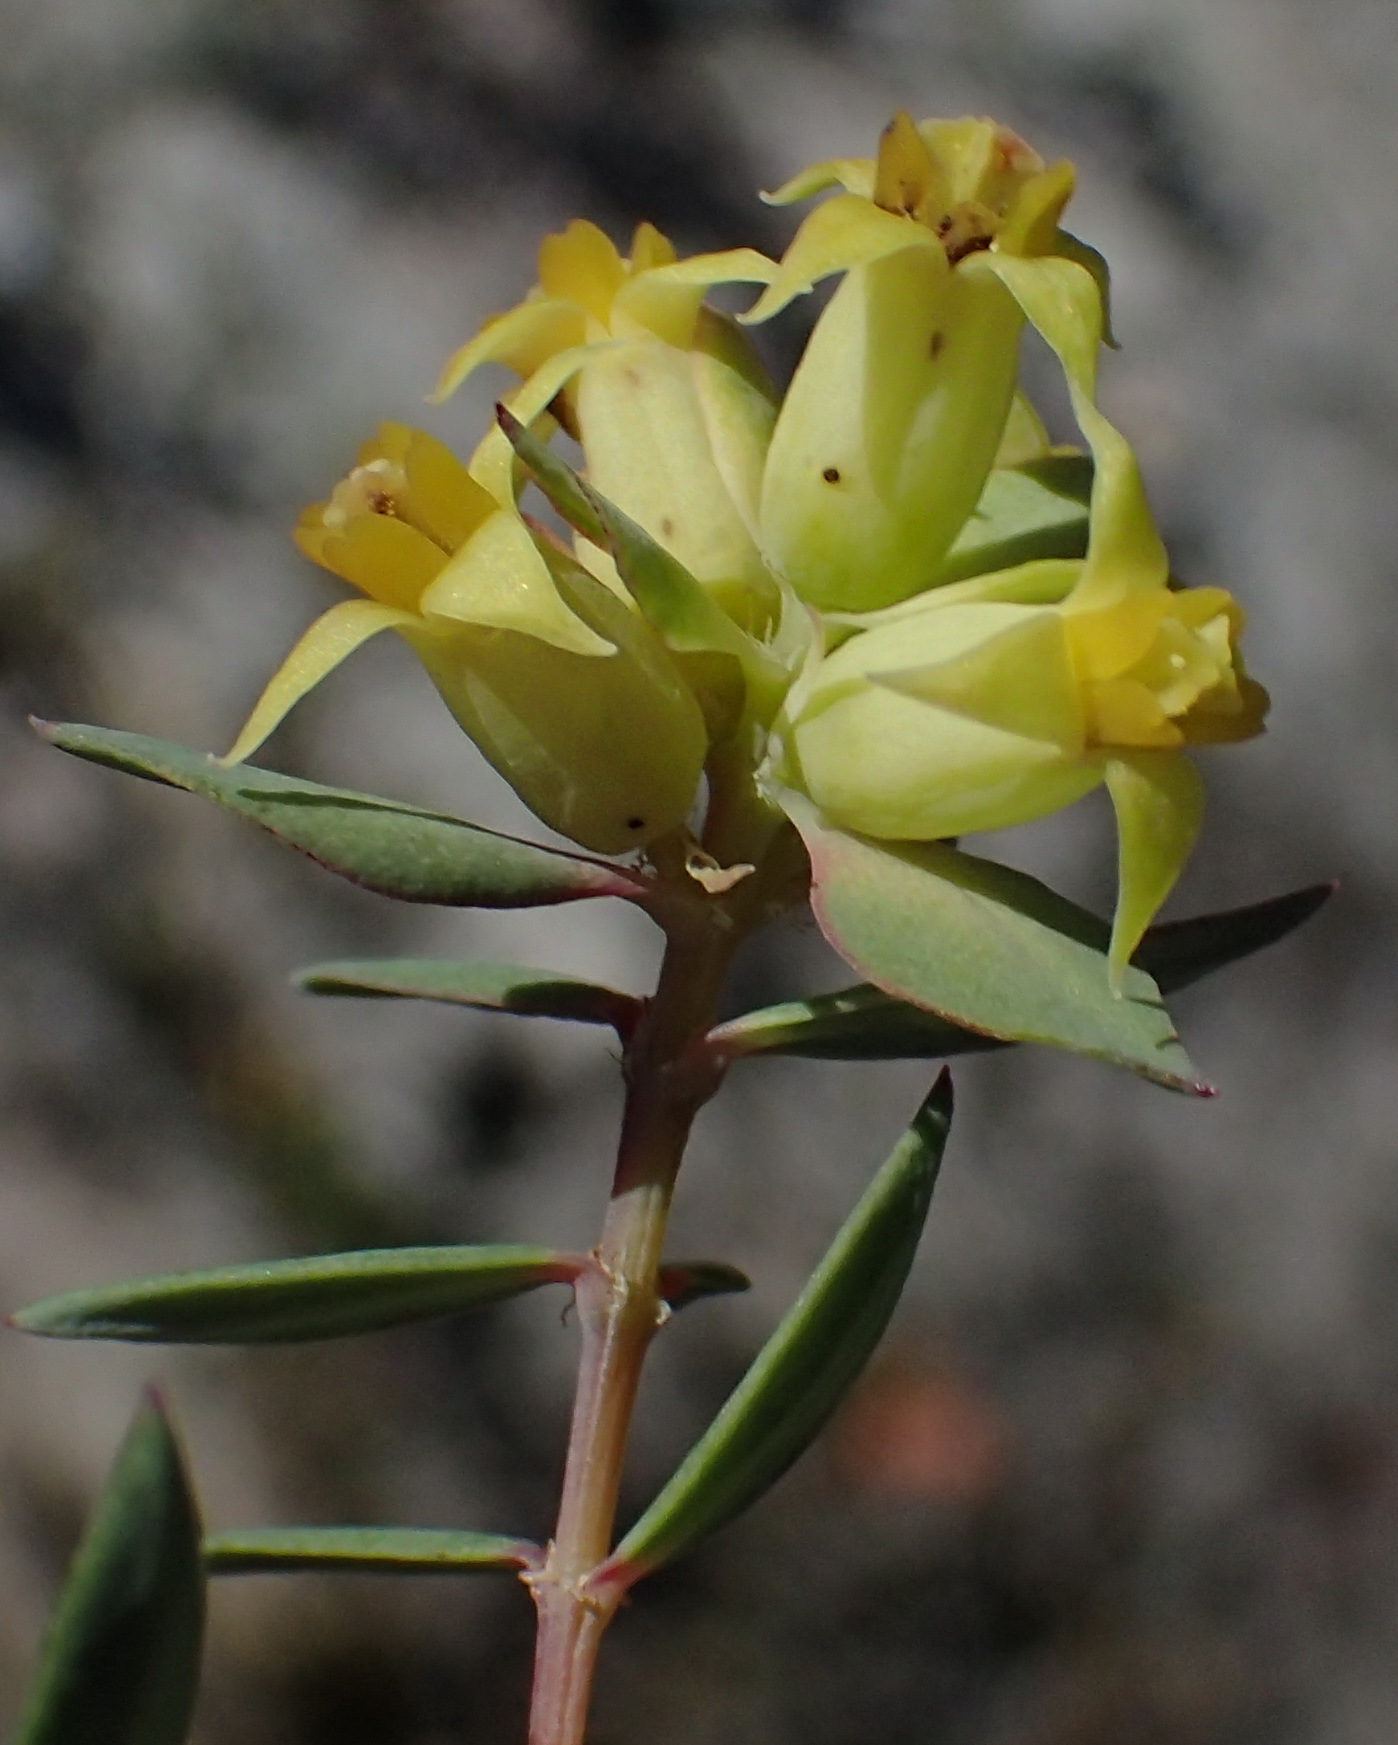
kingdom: Plantae
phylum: Tracheophyta
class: Magnoliopsida
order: Myrtales
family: Penaeaceae
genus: Penaea
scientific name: Penaea acutifolia
